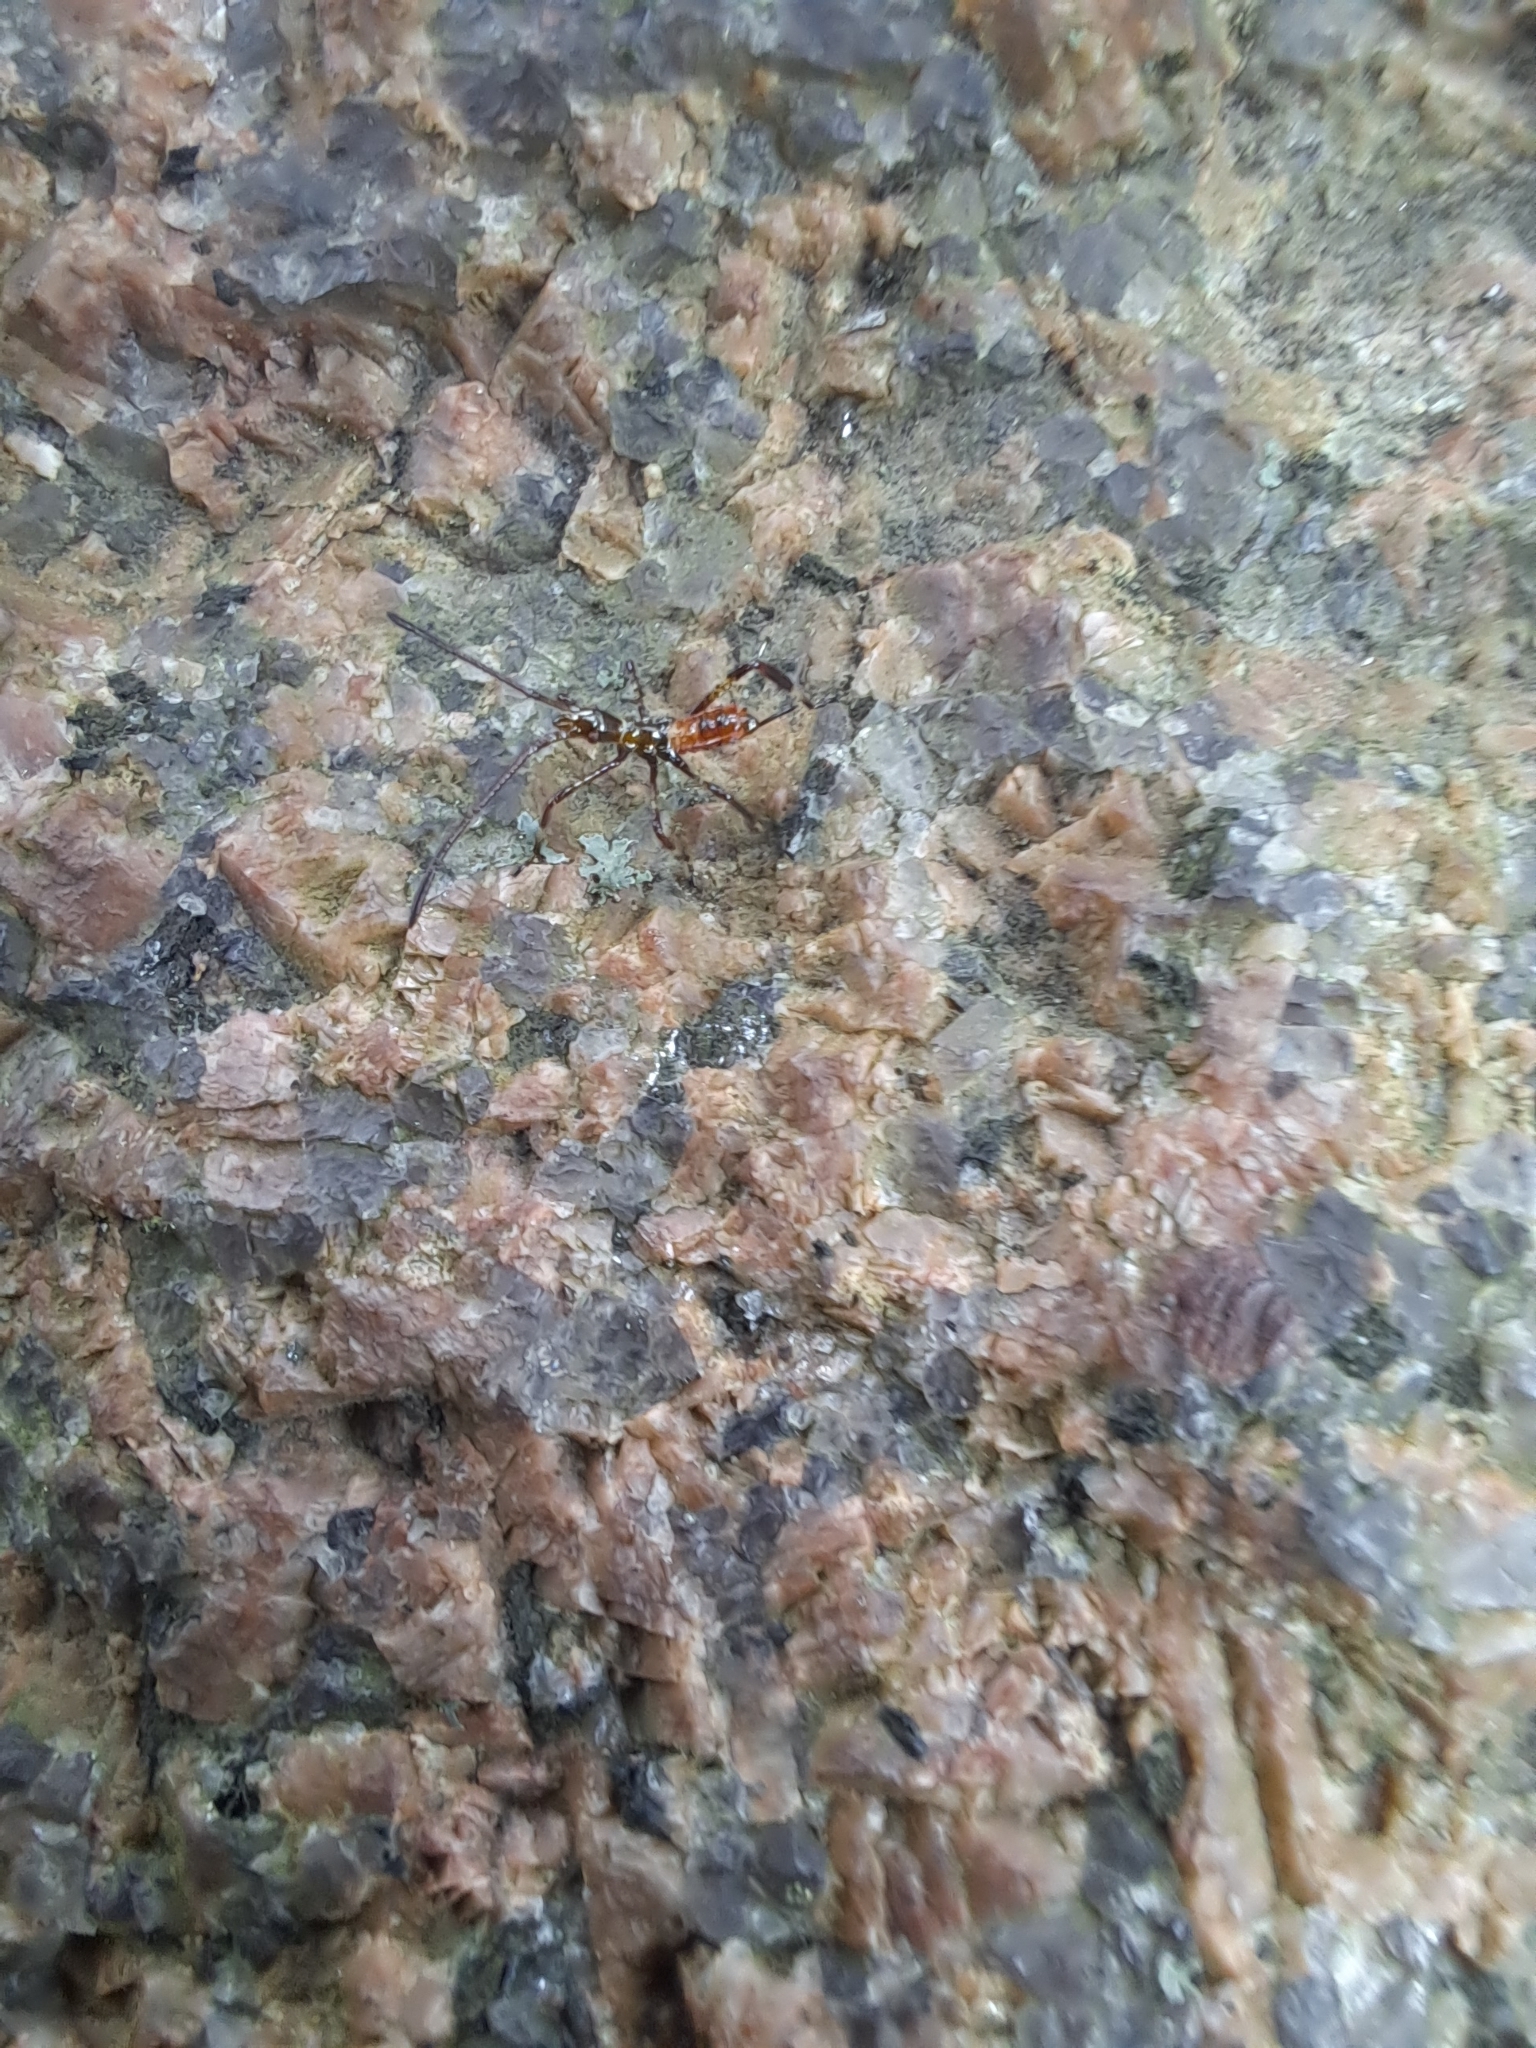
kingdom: Animalia
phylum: Arthropoda
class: Insecta
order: Hemiptera
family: Coreidae
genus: Leptoglossus
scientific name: Leptoglossus occidentalis
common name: Western conifer-seed bug
